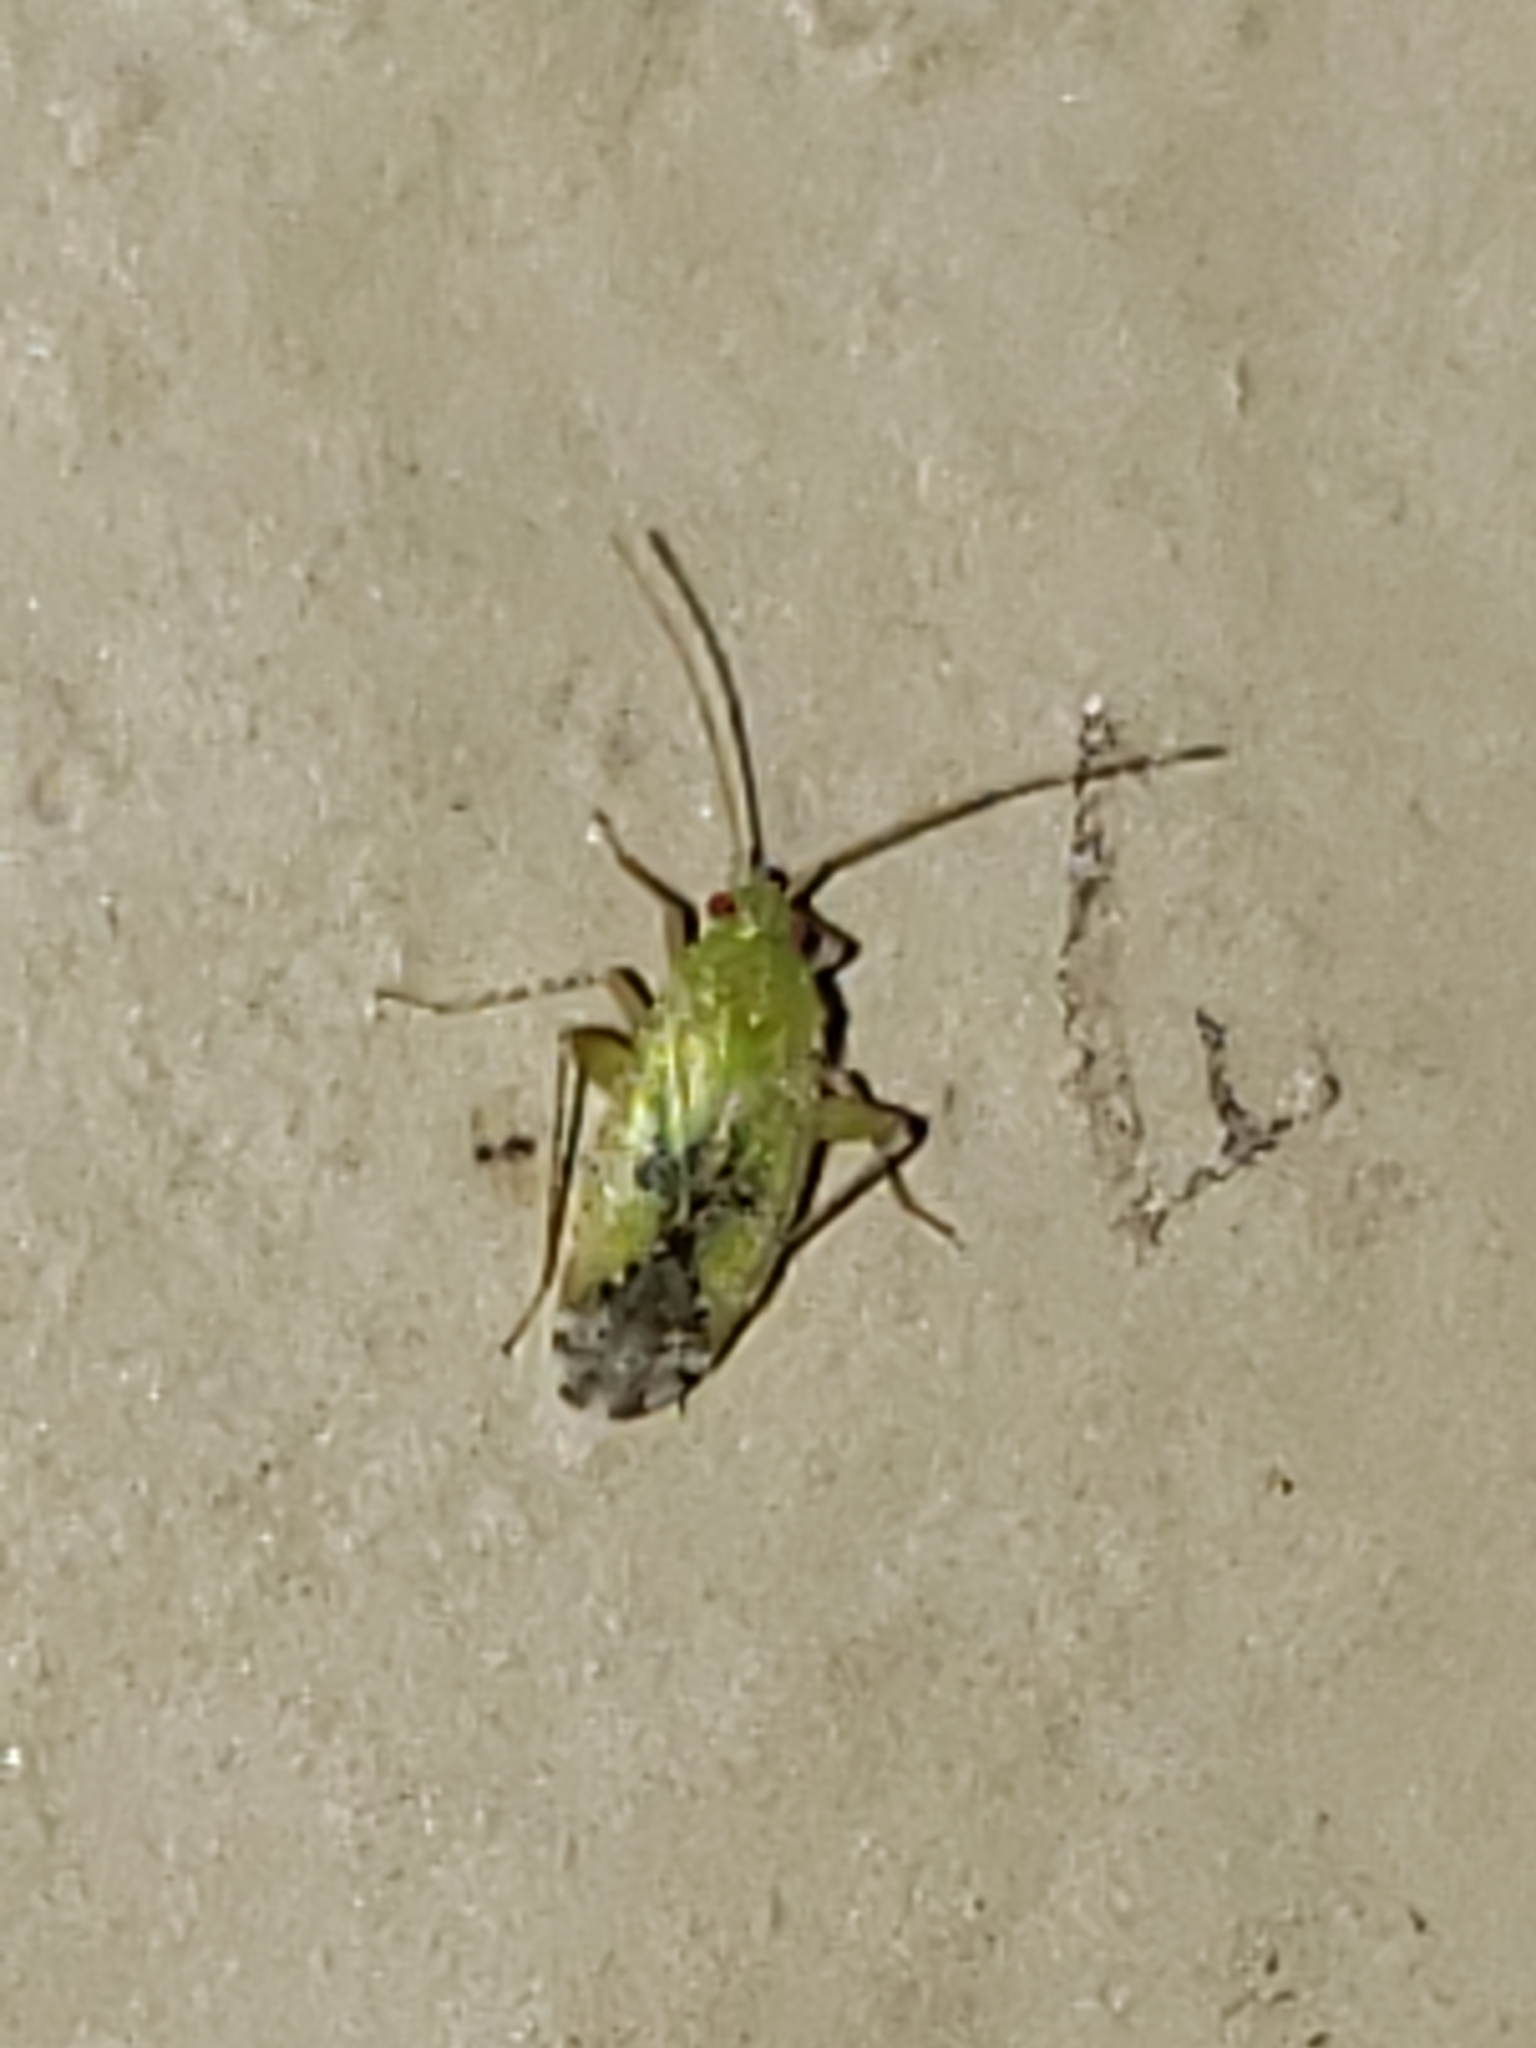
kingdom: Animalia
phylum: Arthropoda
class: Insecta
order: Hemiptera
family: Miridae
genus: Keltonia
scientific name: Keltonia tuckeri
